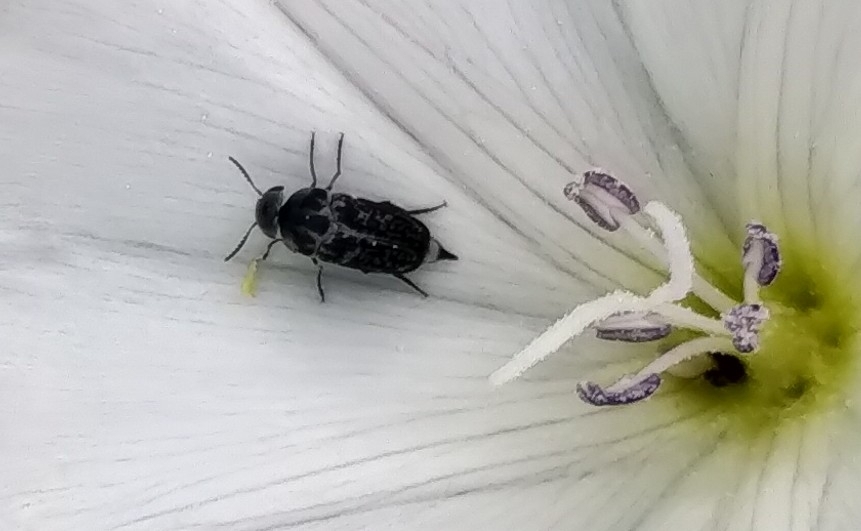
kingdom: Animalia
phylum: Arthropoda
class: Insecta
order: Coleoptera
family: Mordellidae
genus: Mordella
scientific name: Mordella marginata
